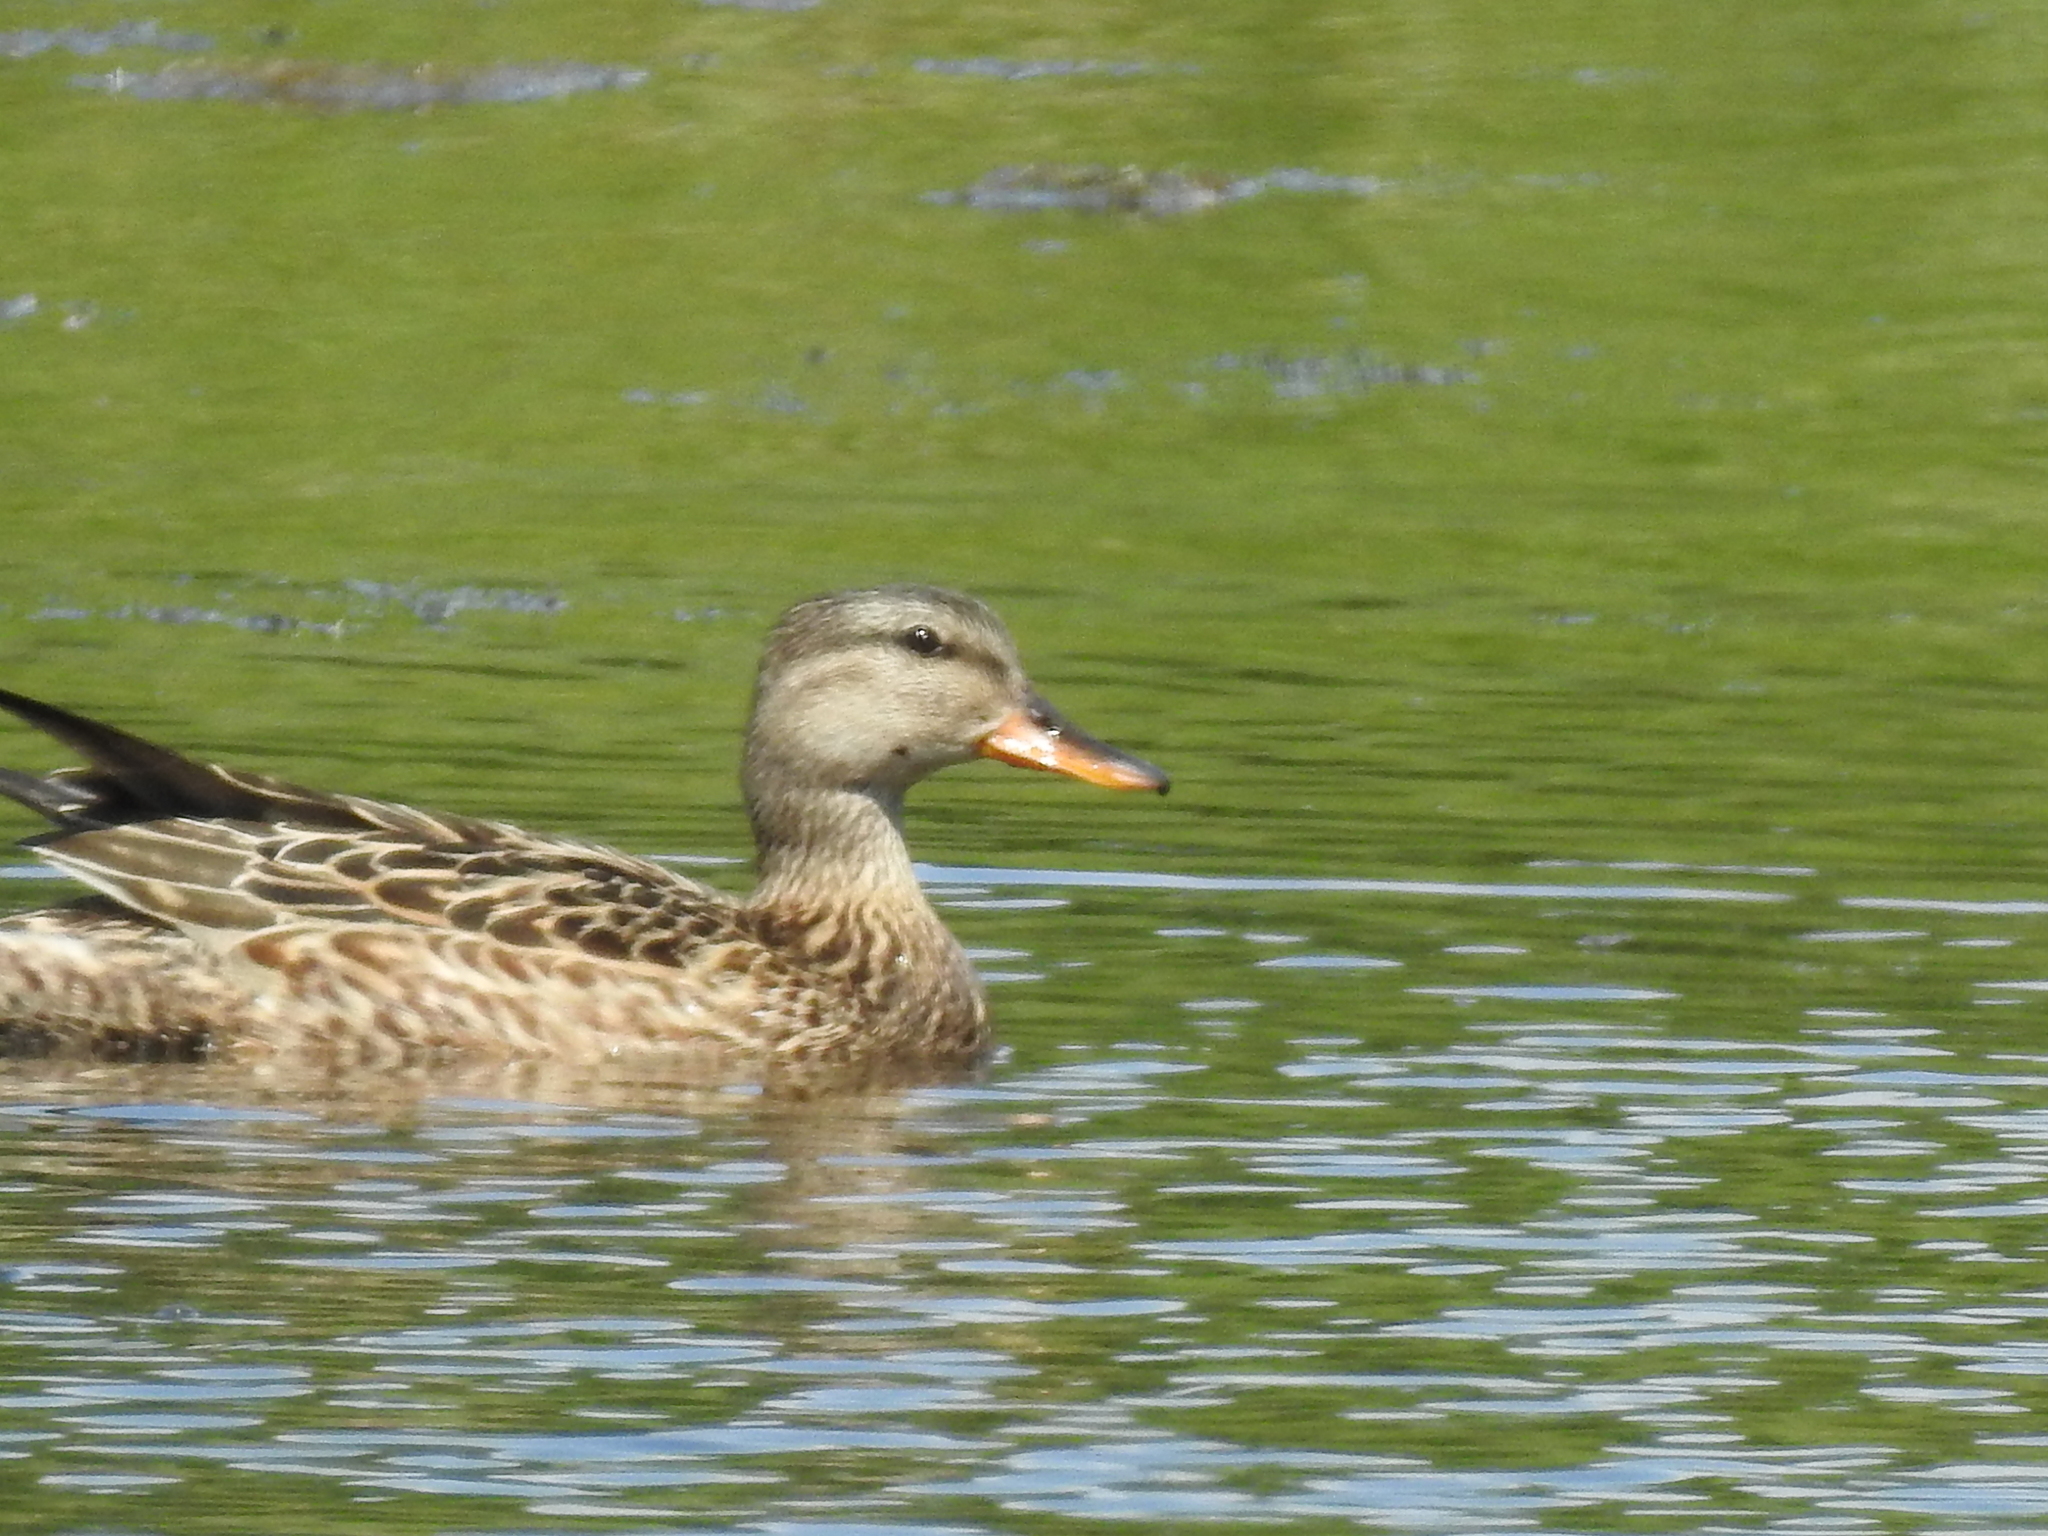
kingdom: Animalia
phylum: Chordata
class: Aves
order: Anseriformes
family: Anatidae
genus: Mareca
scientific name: Mareca strepera
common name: Gadwall
